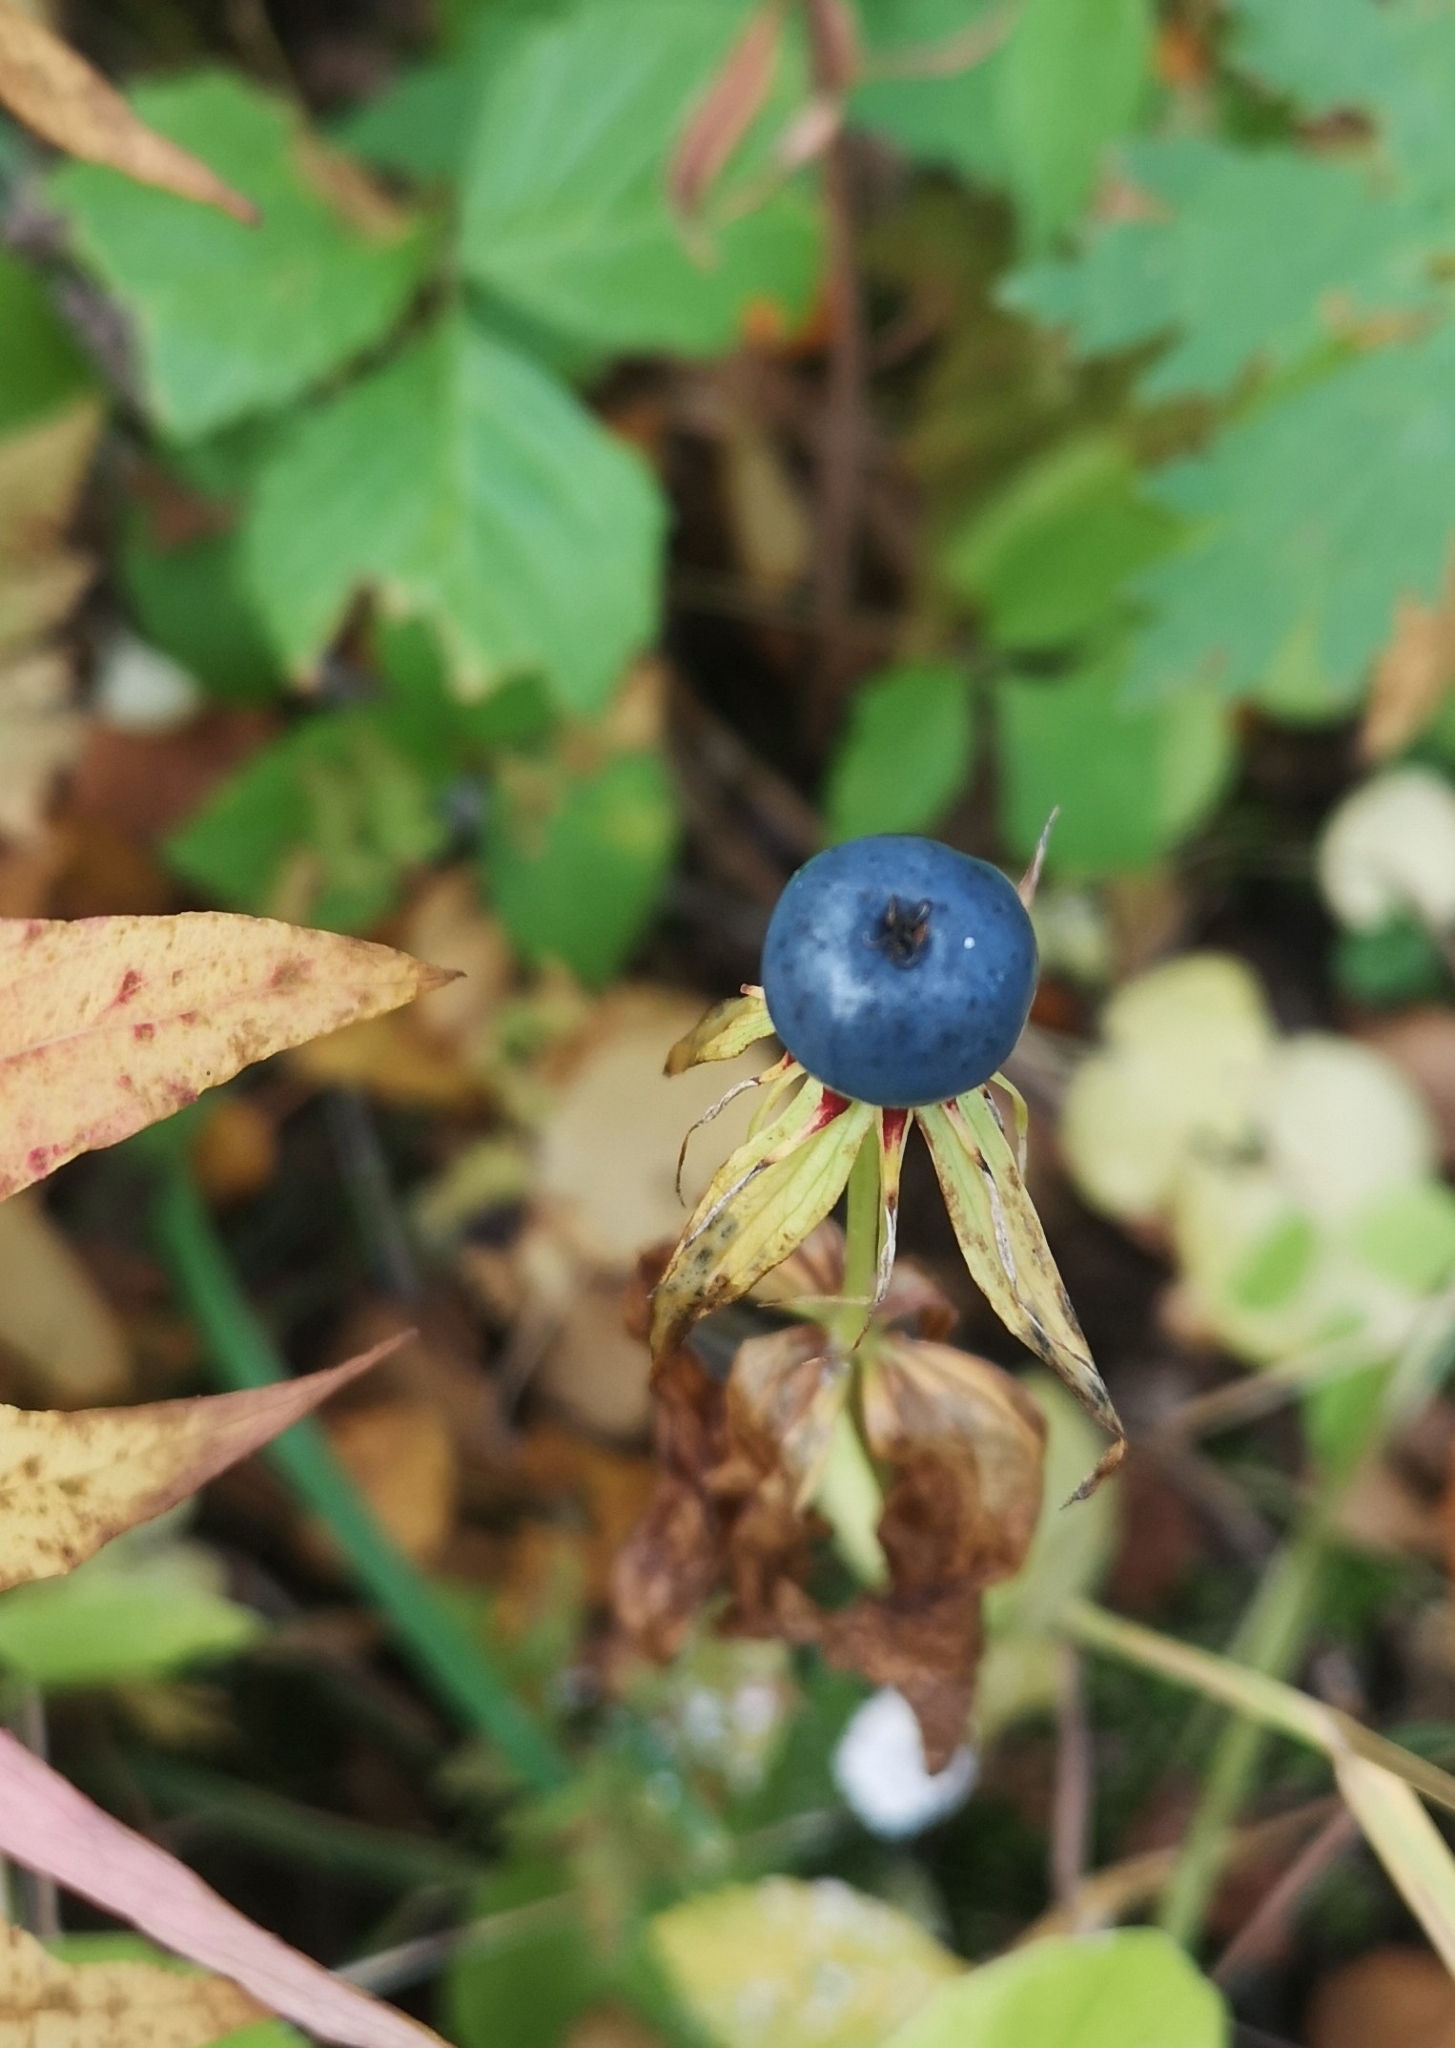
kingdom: Plantae
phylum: Tracheophyta
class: Liliopsida
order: Liliales
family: Melanthiaceae
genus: Paris
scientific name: Paris quadrifolia
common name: Herb-paris
